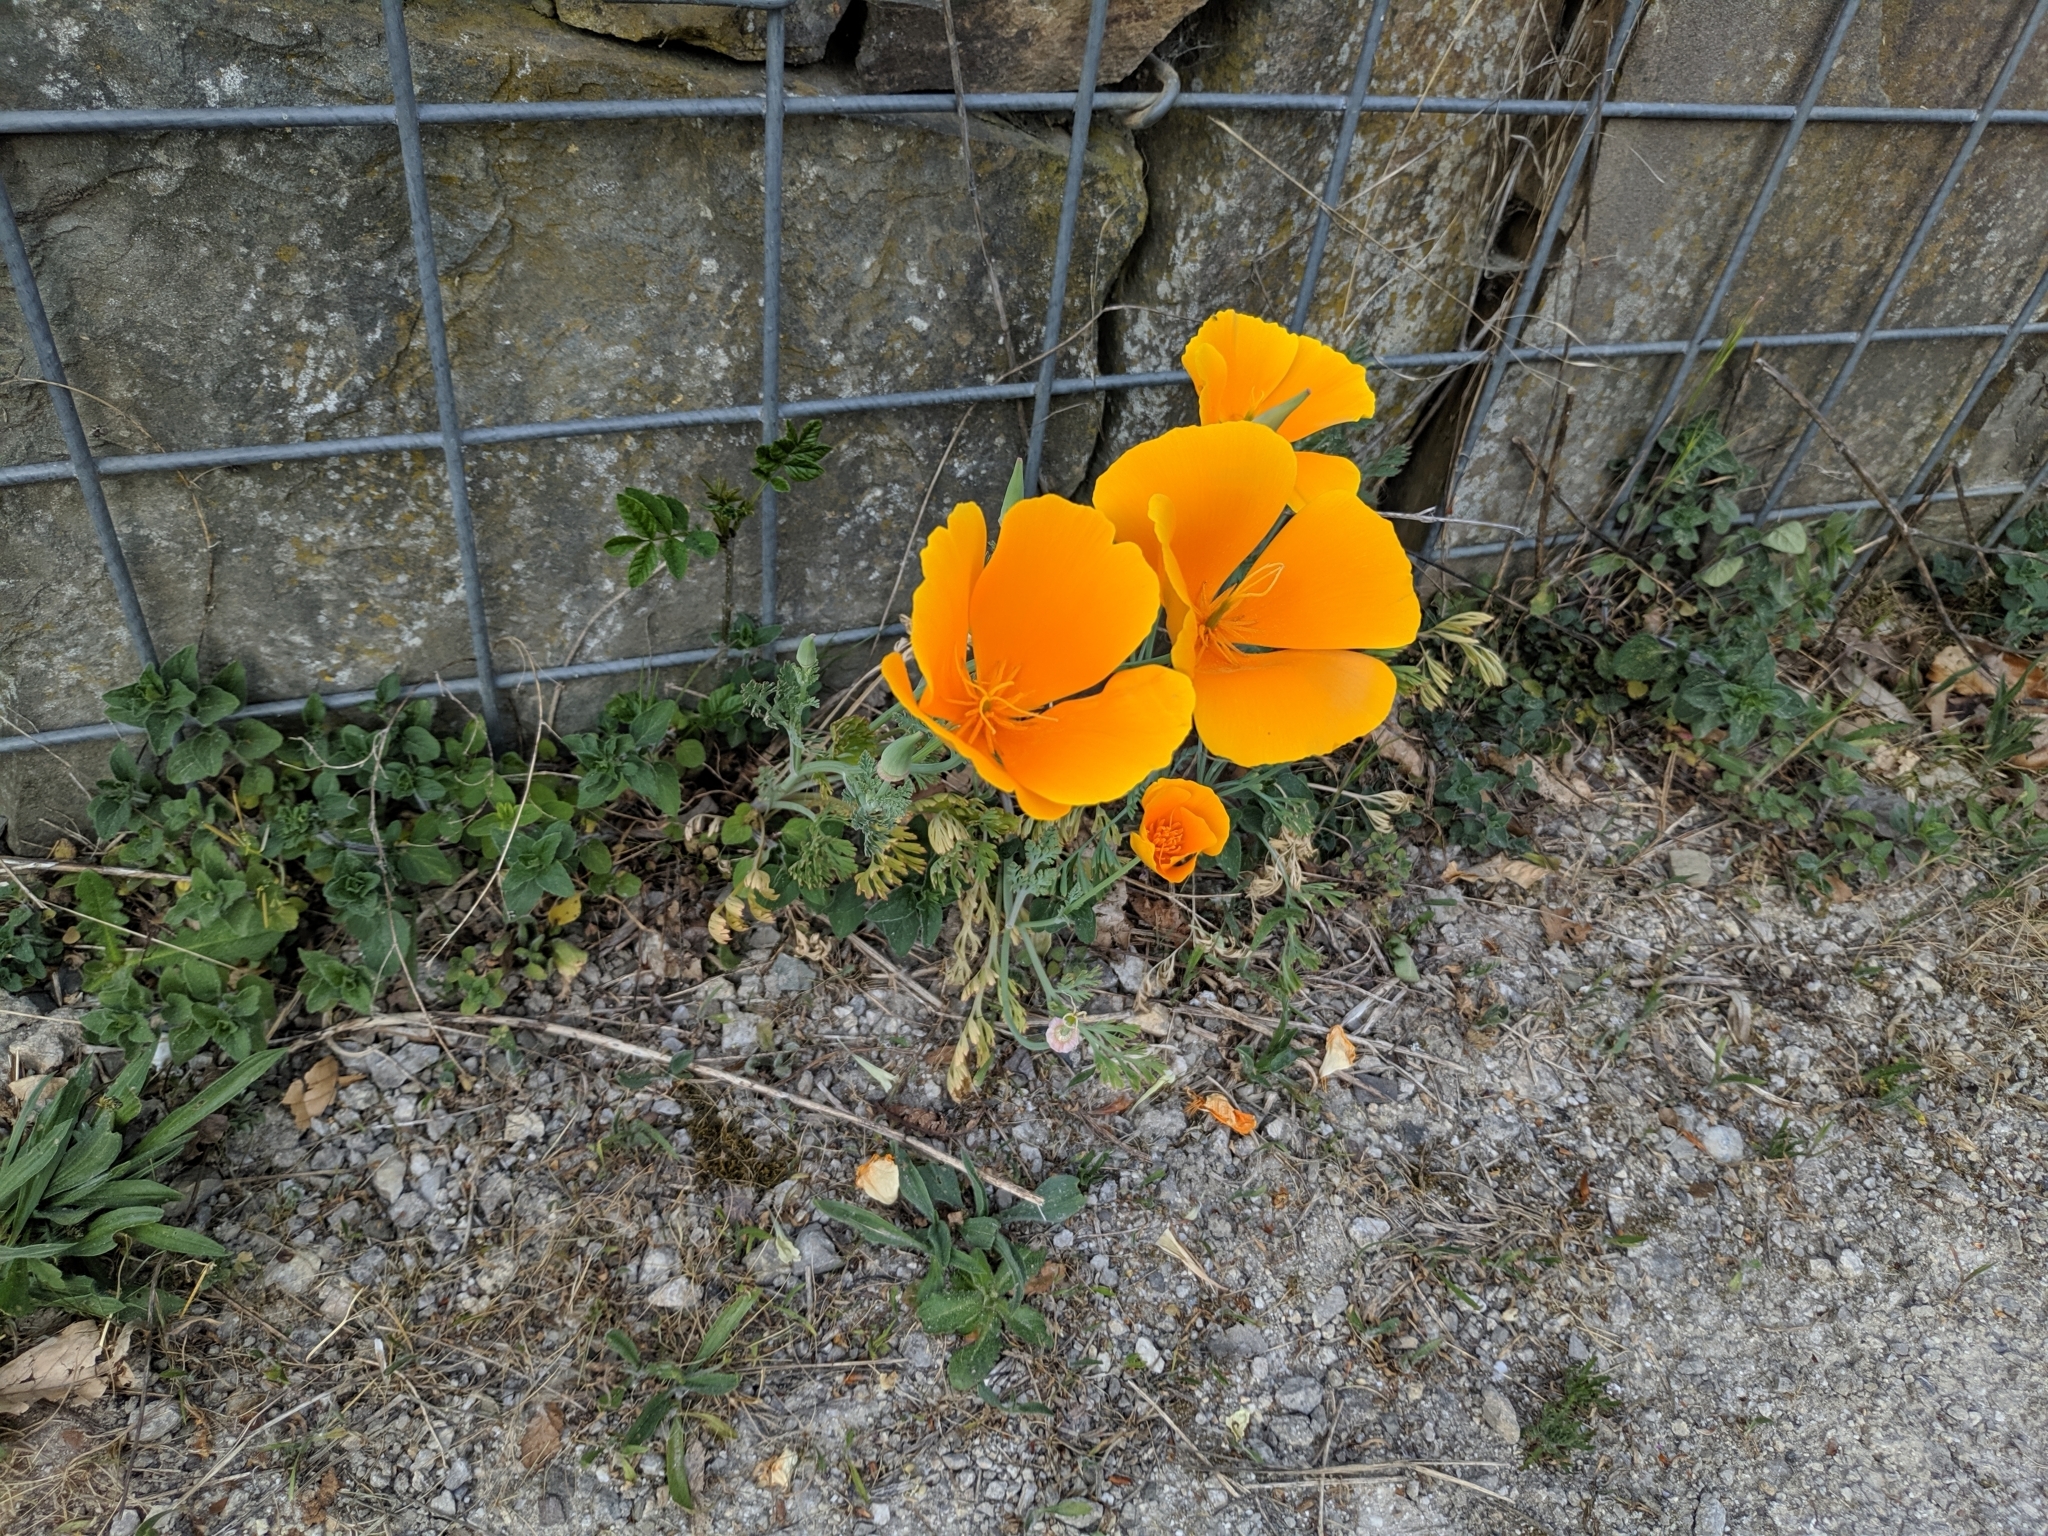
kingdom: Plantae
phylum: Tracheophyta
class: Magnoliopsida
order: Ranunculales
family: Papaveraceae
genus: Eschscholzia
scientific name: Eschscholzia californica
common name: California poppy
